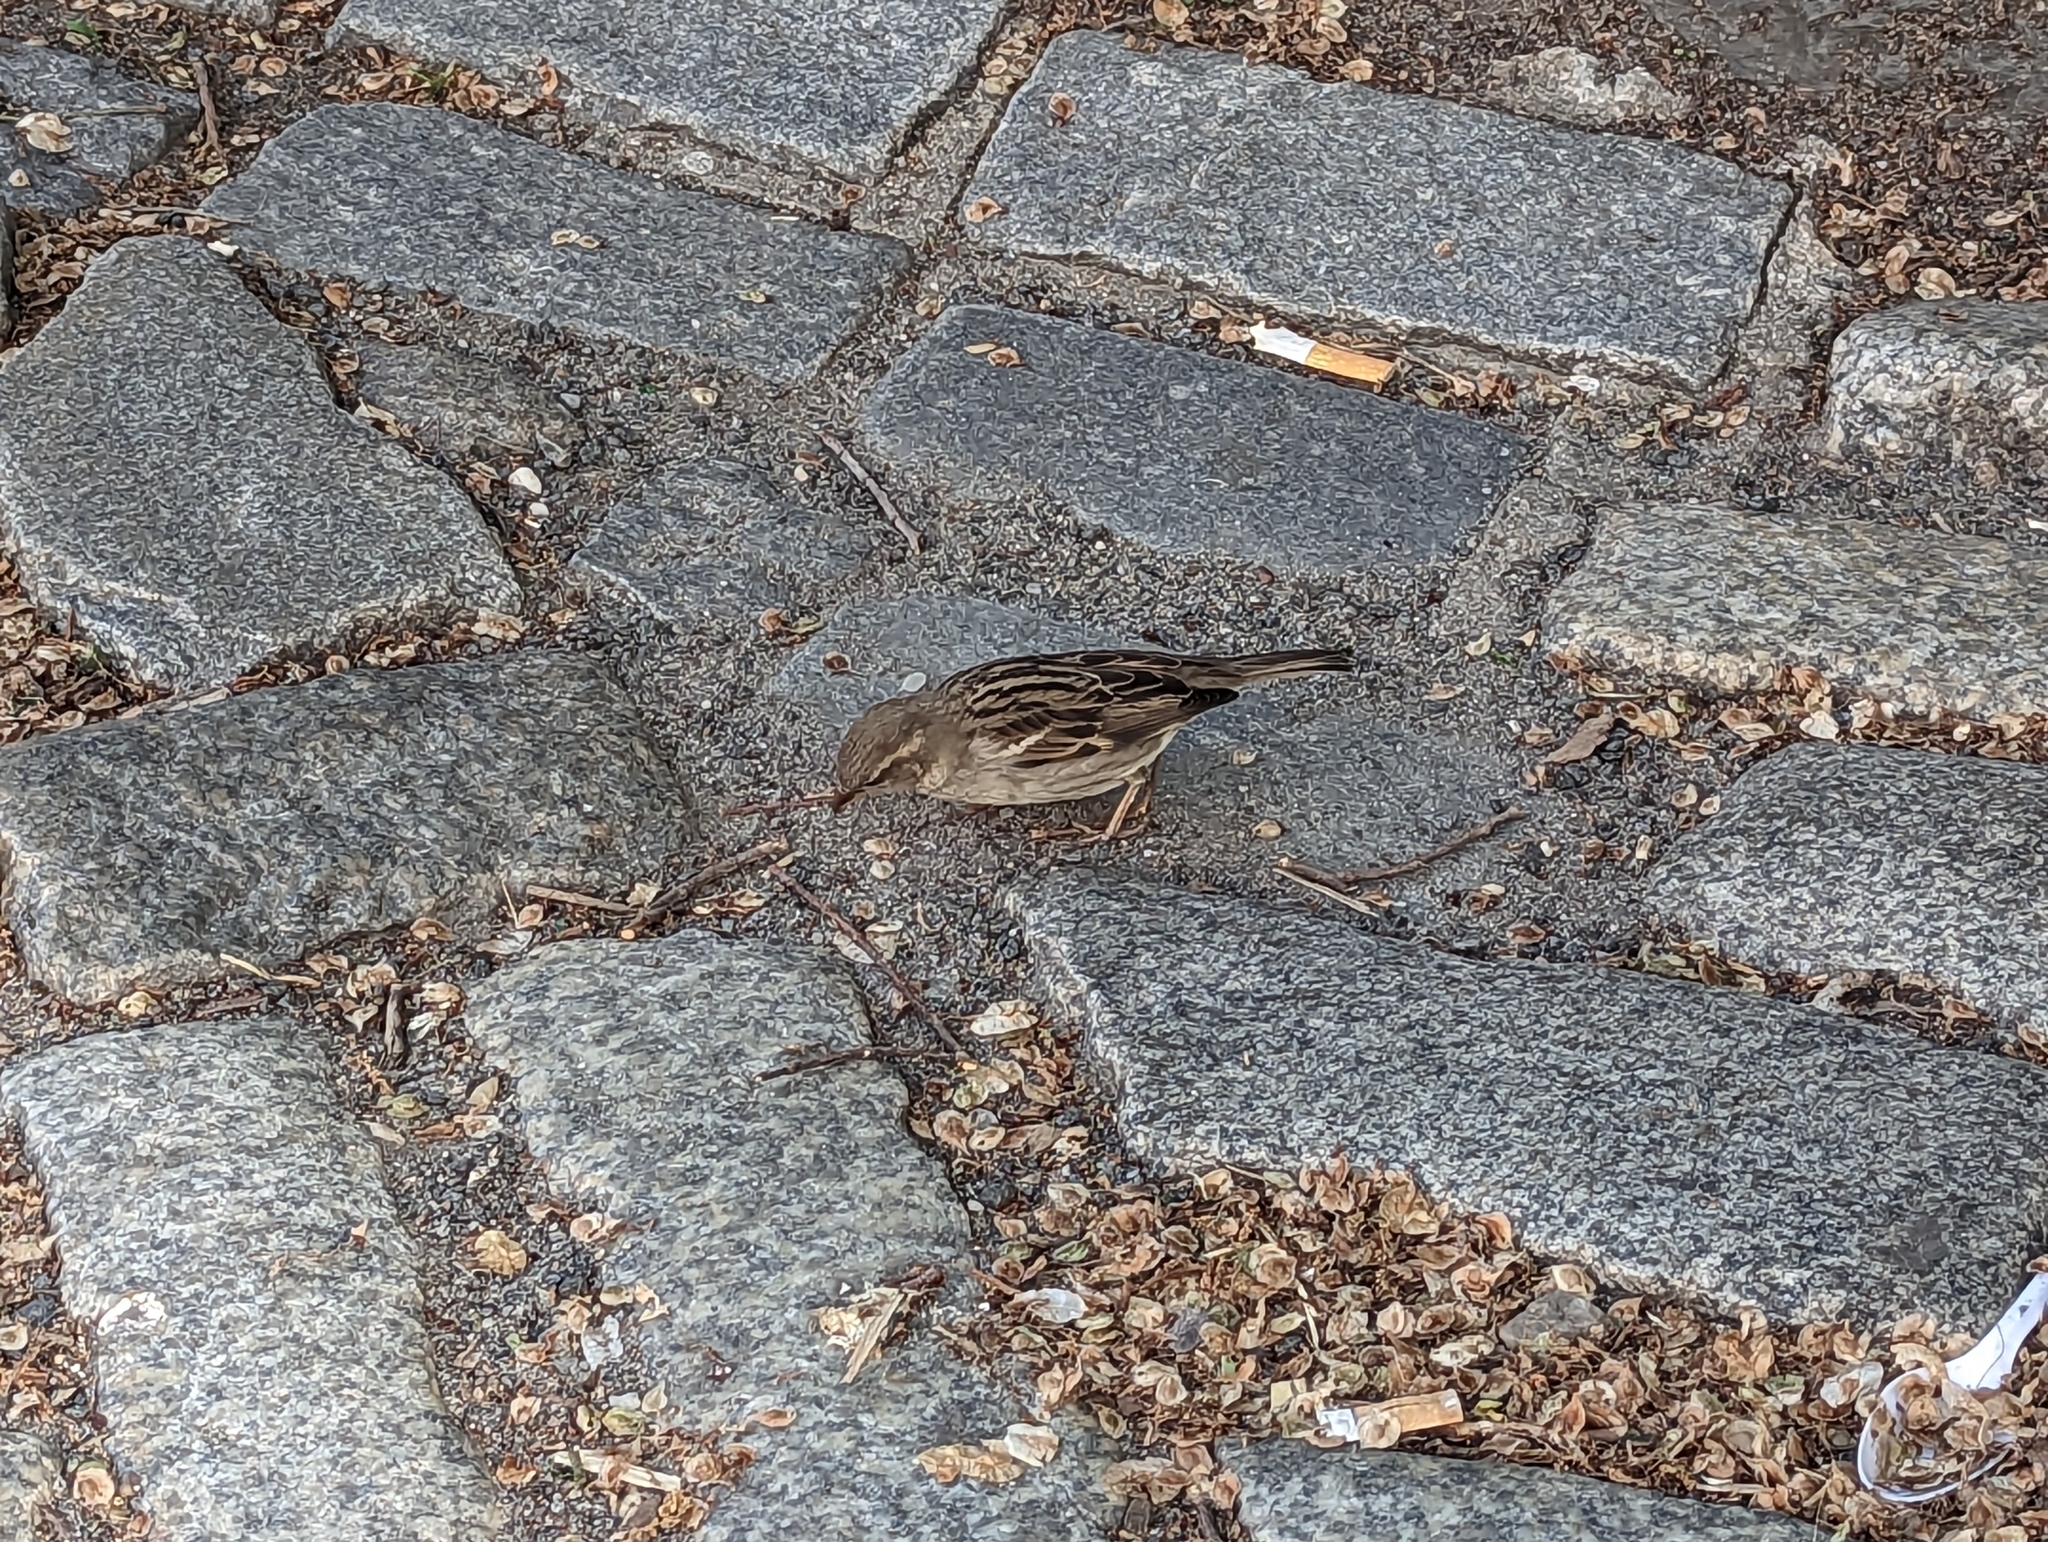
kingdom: Animalia
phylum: Chordata
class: Aves
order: Passeriformes
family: Passeridae
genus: Passer
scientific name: Passer domesticus
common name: House sparrow
